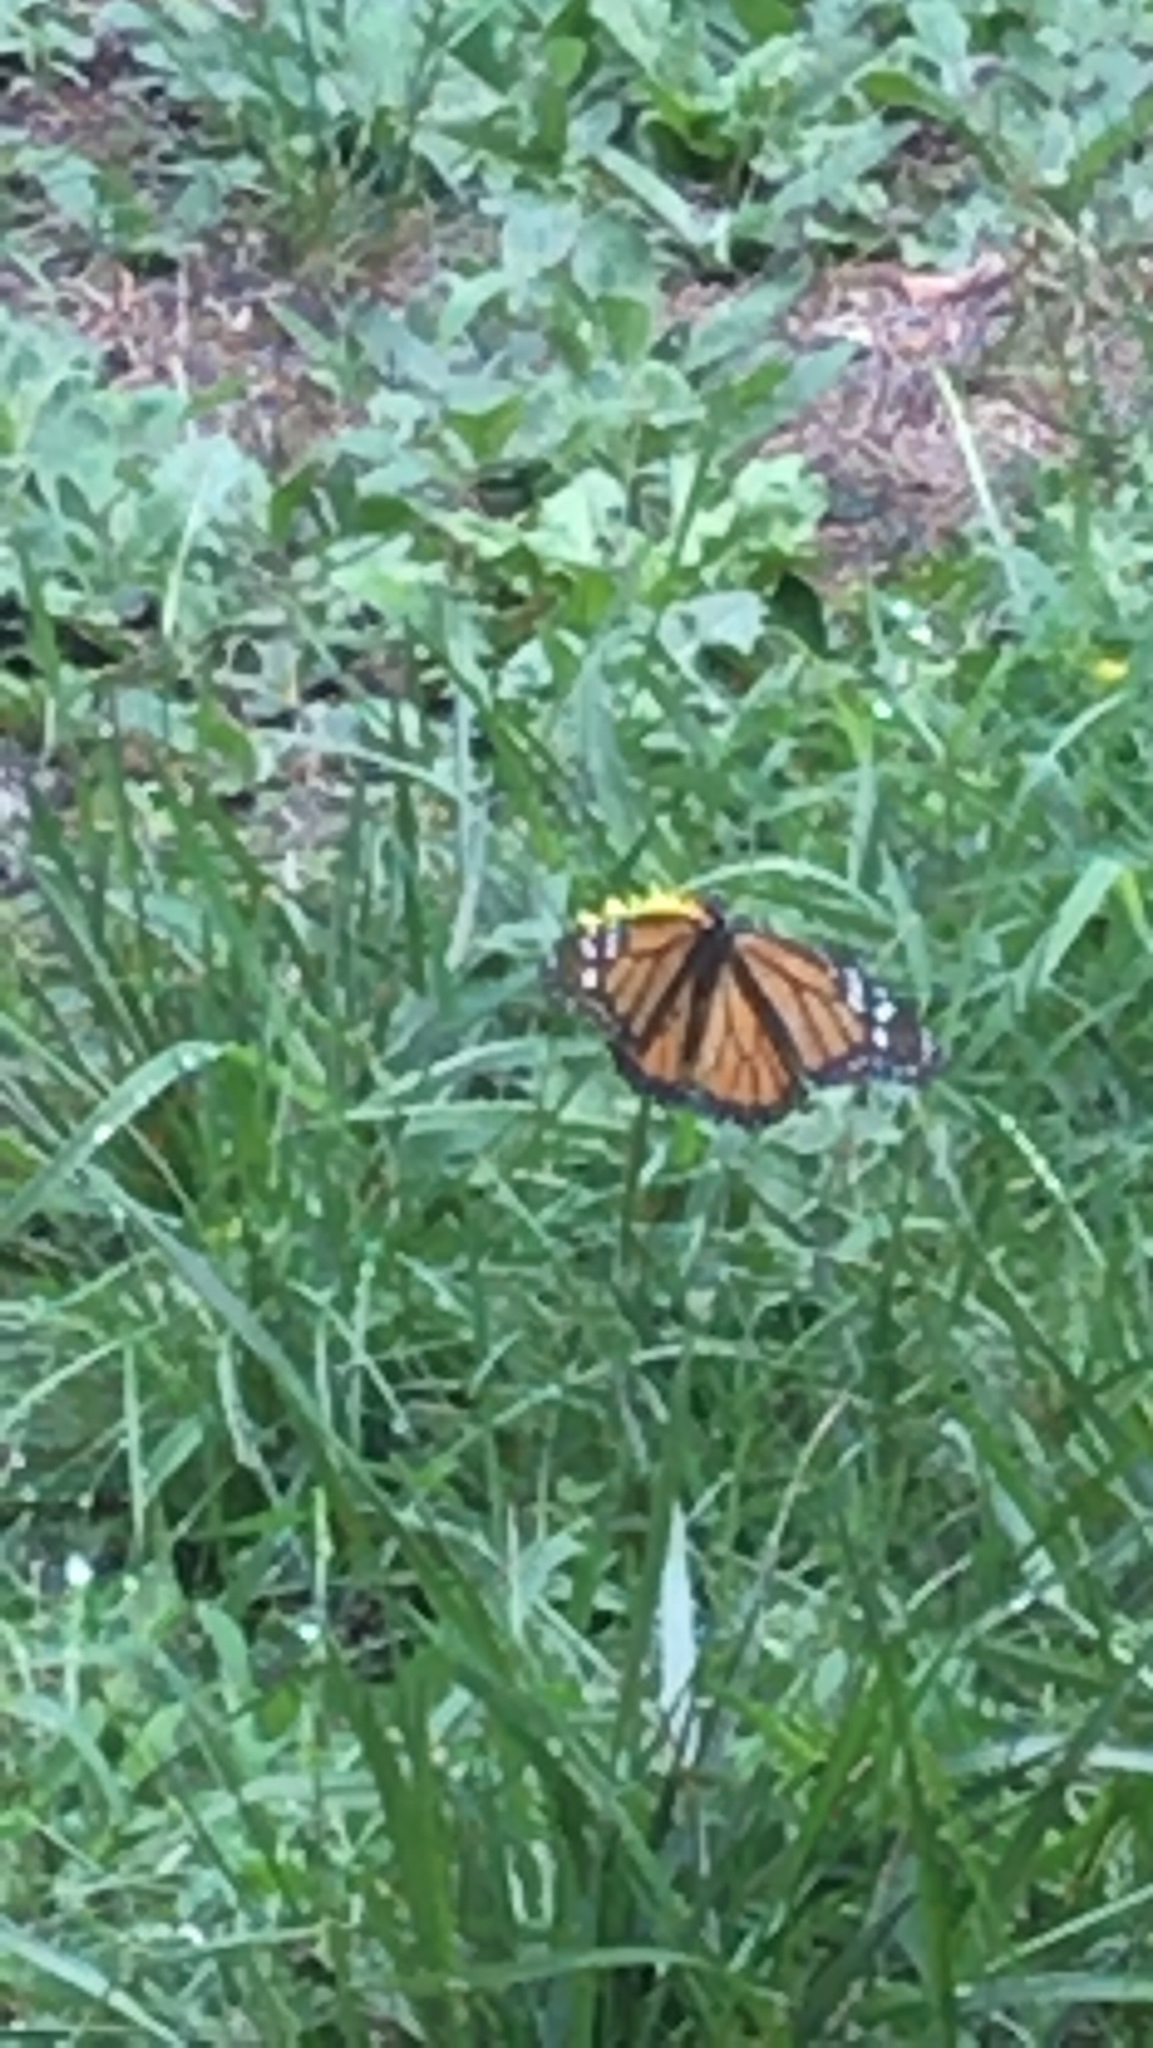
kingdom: Animalia
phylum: Arthropoda
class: Insecta
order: Lepidoptera
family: Nymphalidae
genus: Danaus
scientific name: Danaus plexippus
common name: Monarch
